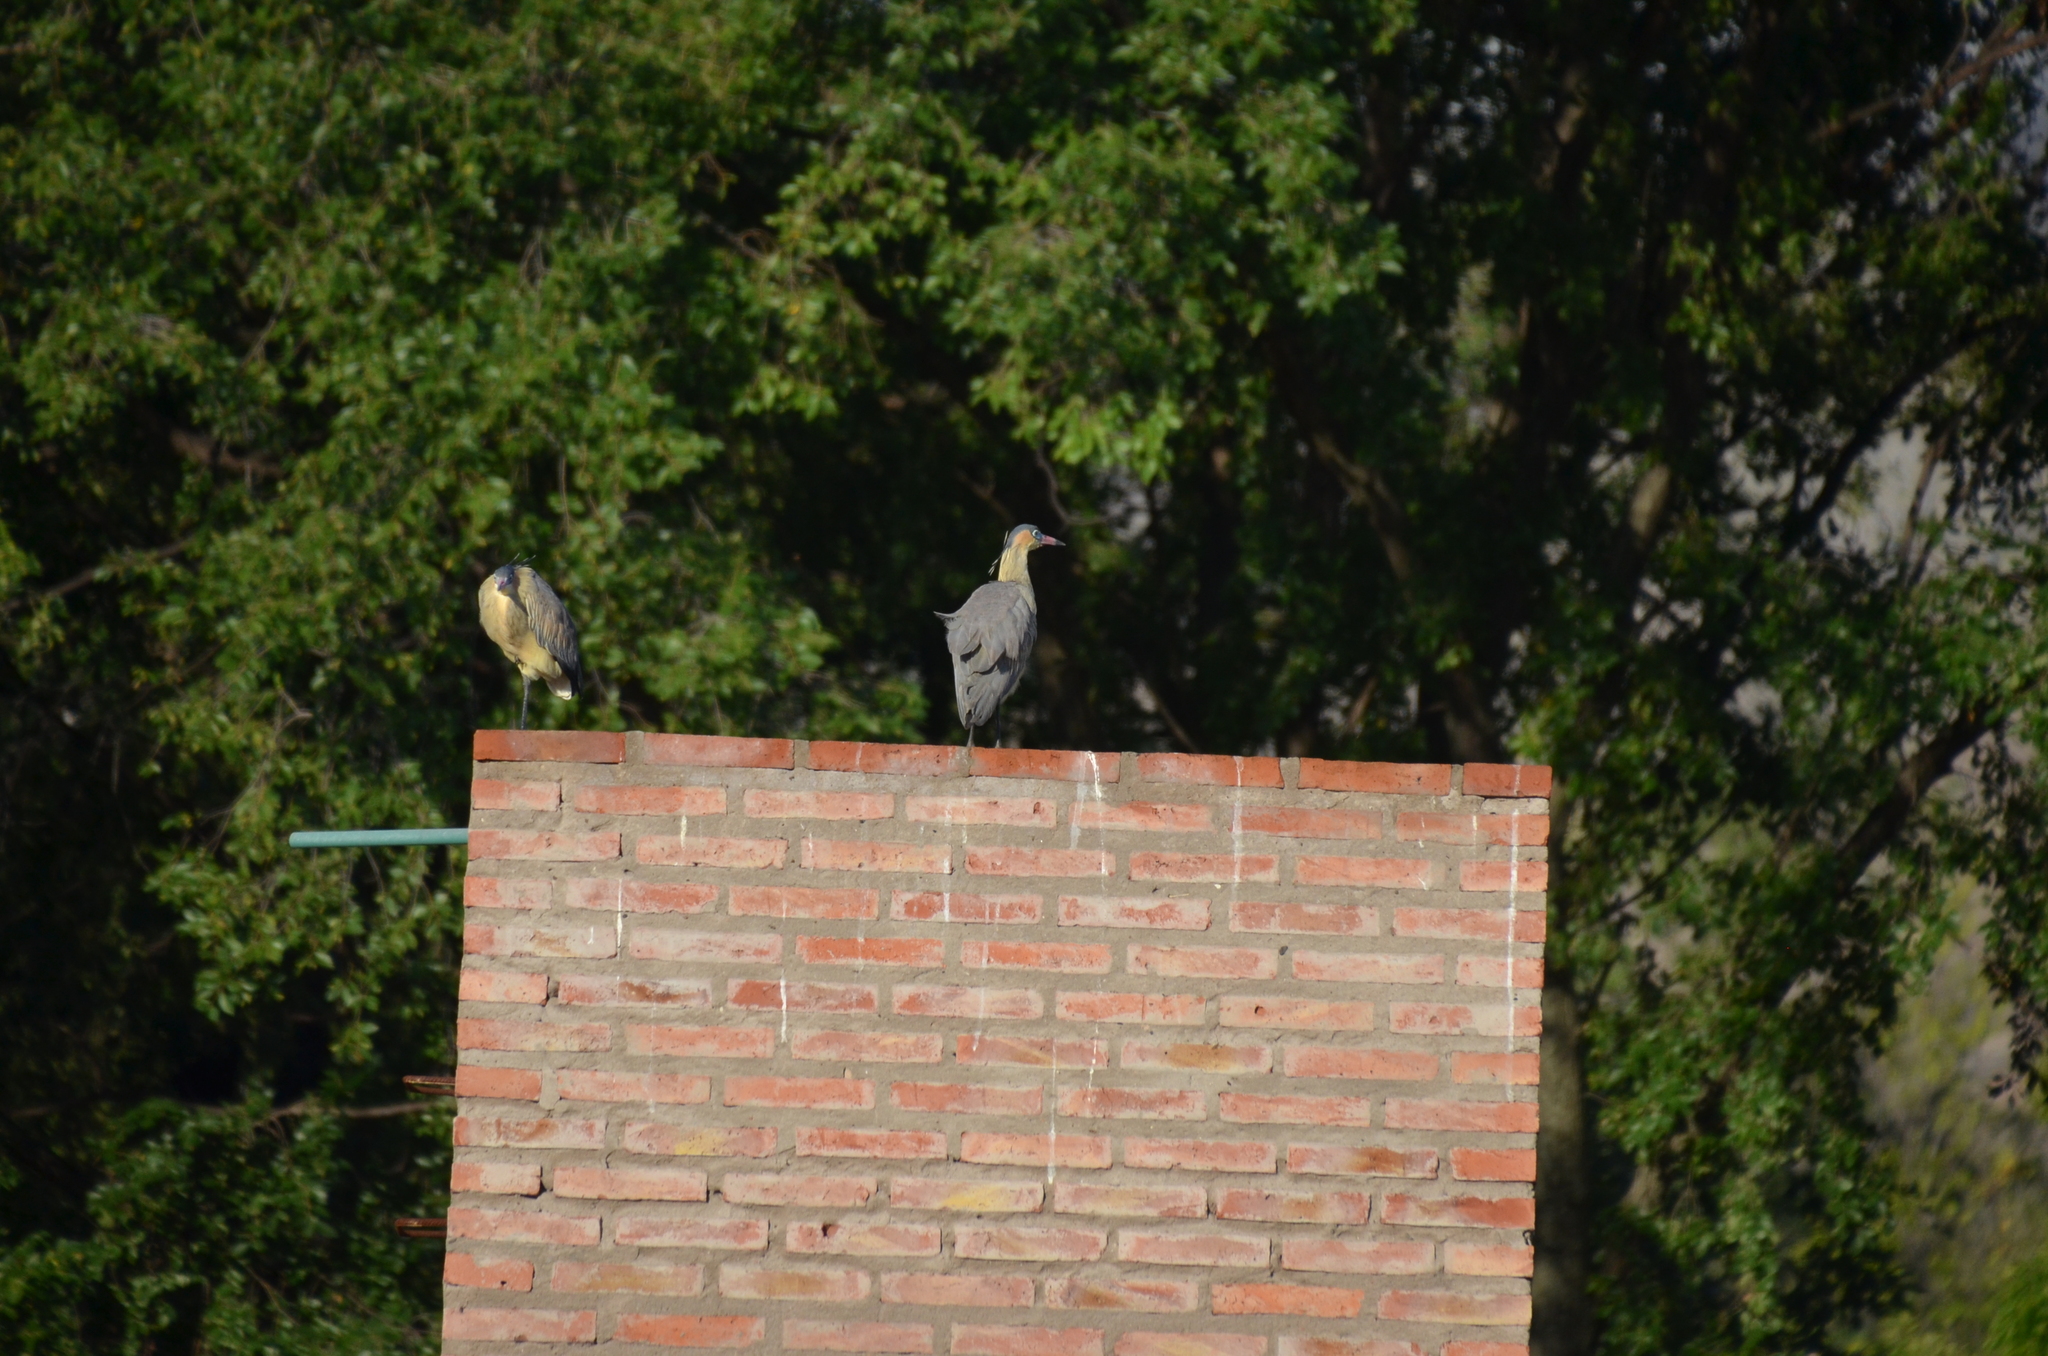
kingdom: Animalia
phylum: Chordata
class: Aves
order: Pelecaniformes
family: Ardeidae
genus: Syrigma
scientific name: Syrigma sibilatrix
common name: Whistling heron
